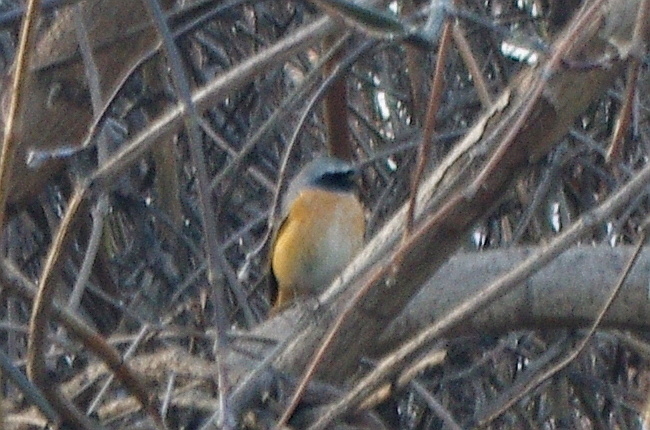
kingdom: Animalia
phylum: Chordata
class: Aves
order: Passeriformes
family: Muscicapidae
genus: Phoenicurus
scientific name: Phoenicurus phoenicurus
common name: Common redstart
